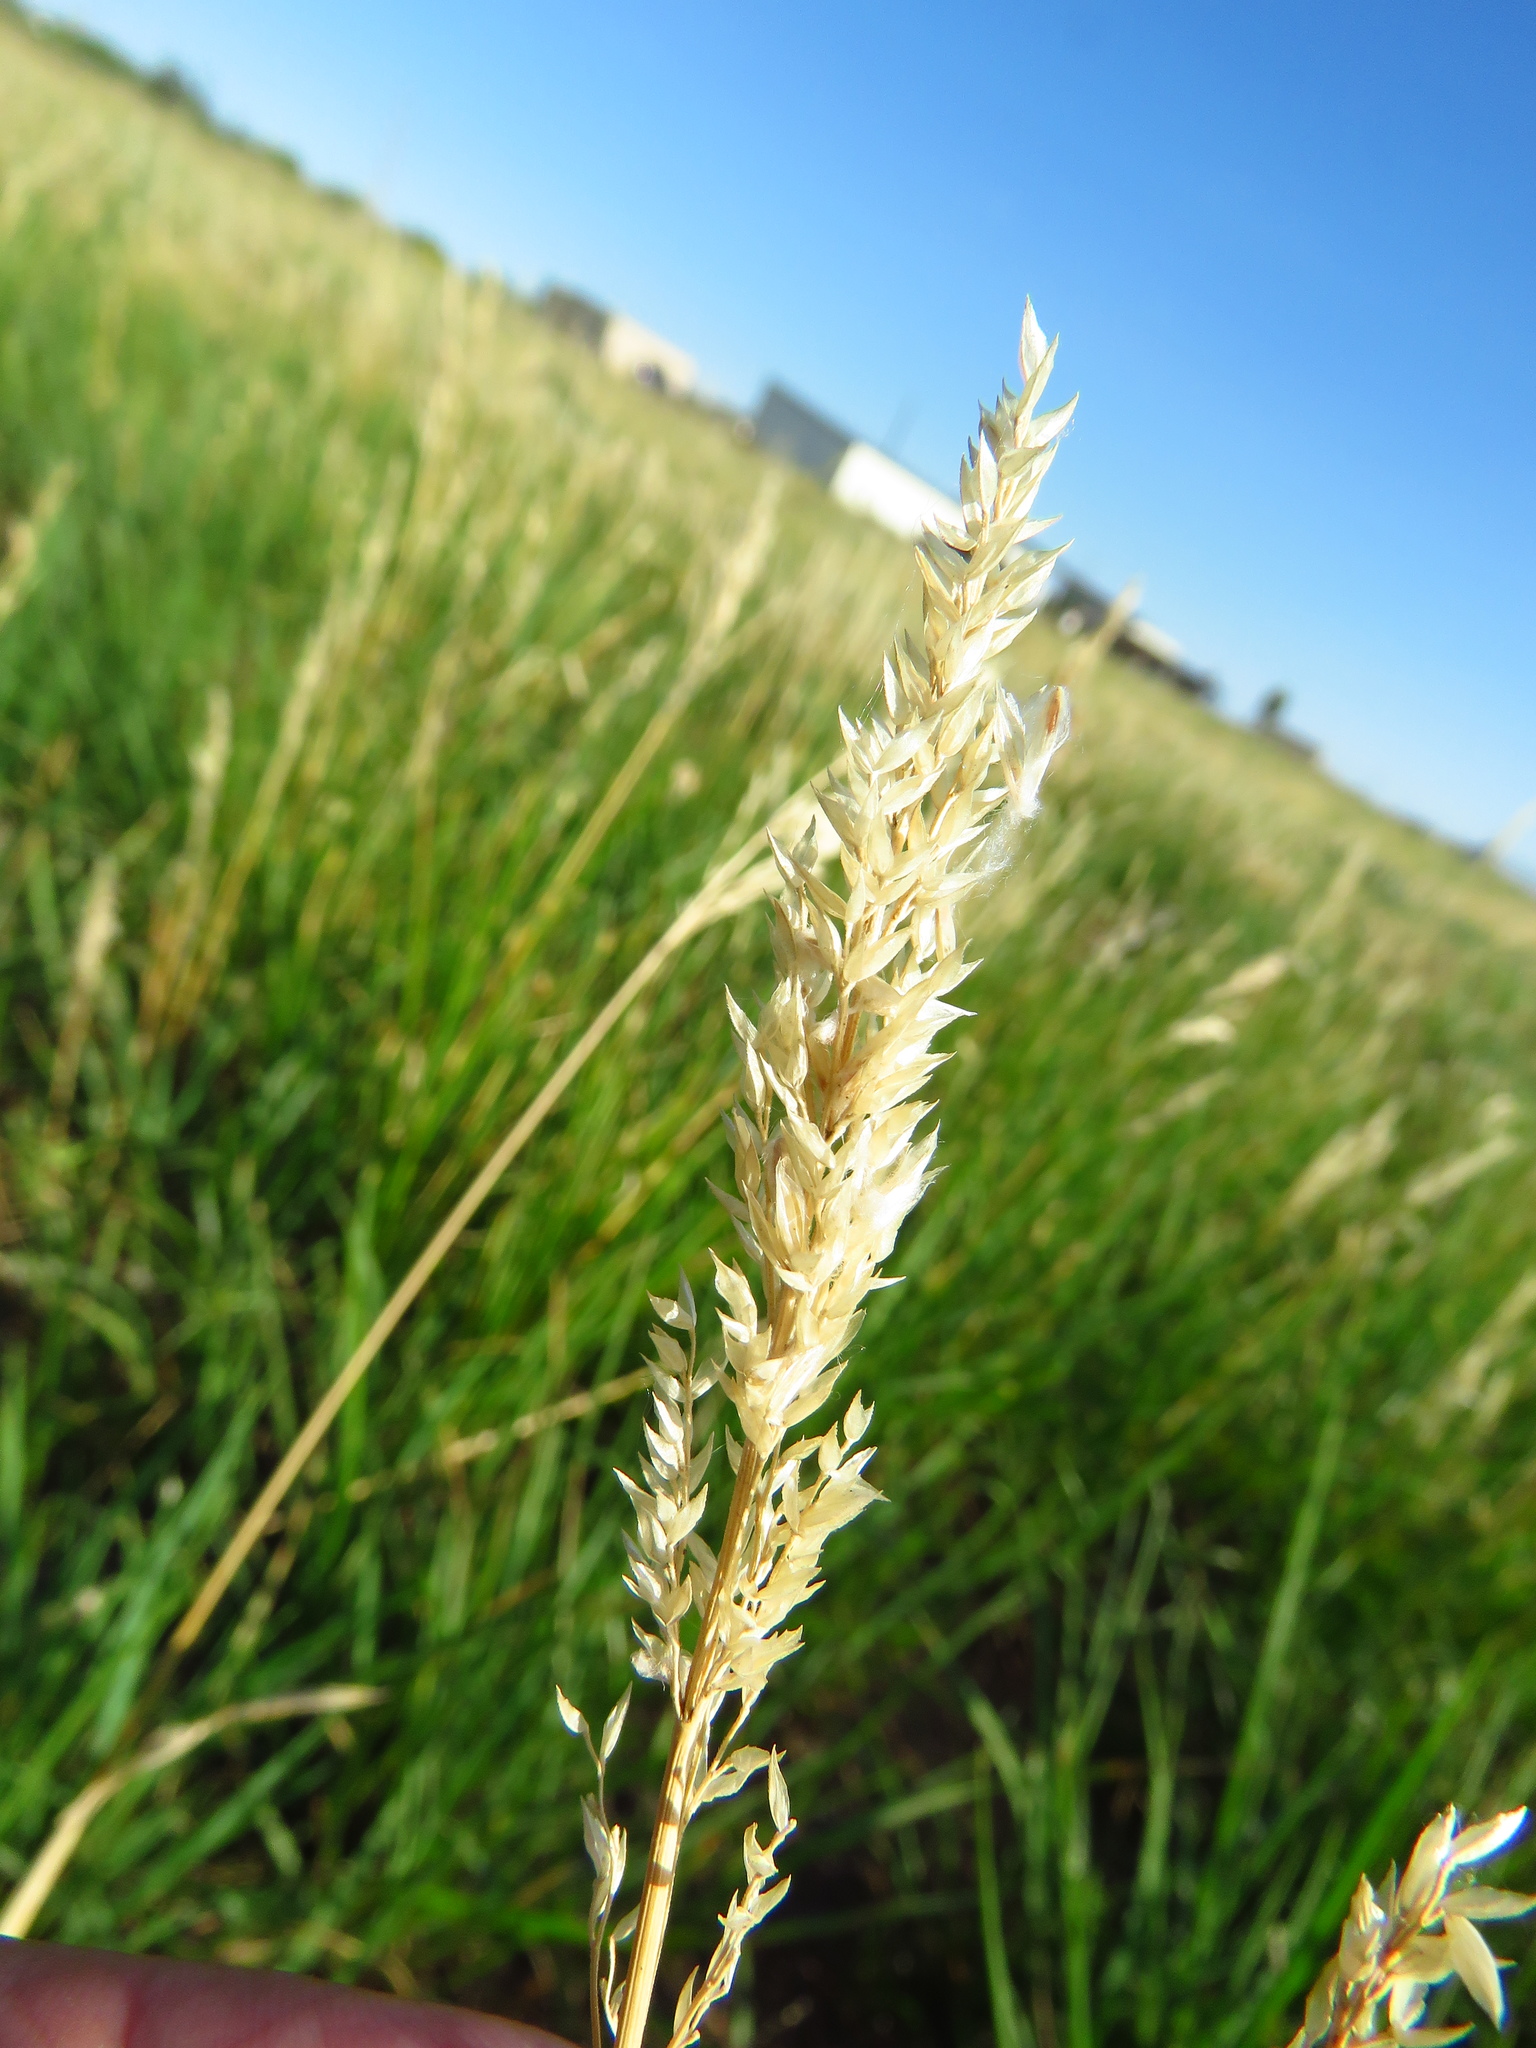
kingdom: Plantae
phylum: Tracheophyta
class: Liliopsida
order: Poales
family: Poaceae
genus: Poa
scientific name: Poa arachnifera
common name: Texas bluegrass
